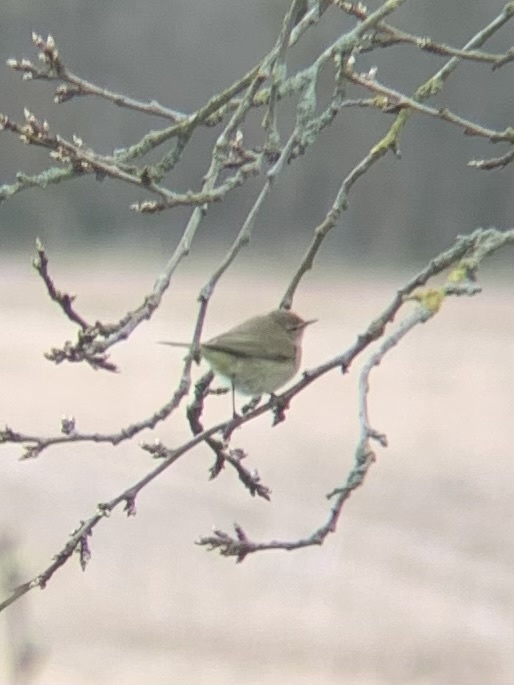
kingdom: Animalia
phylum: Chordata
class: Aves
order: Passeriformes
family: Phylloscopidae
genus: Phylloscopus
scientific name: Phylloscopus collybita
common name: Common chiffchaff
